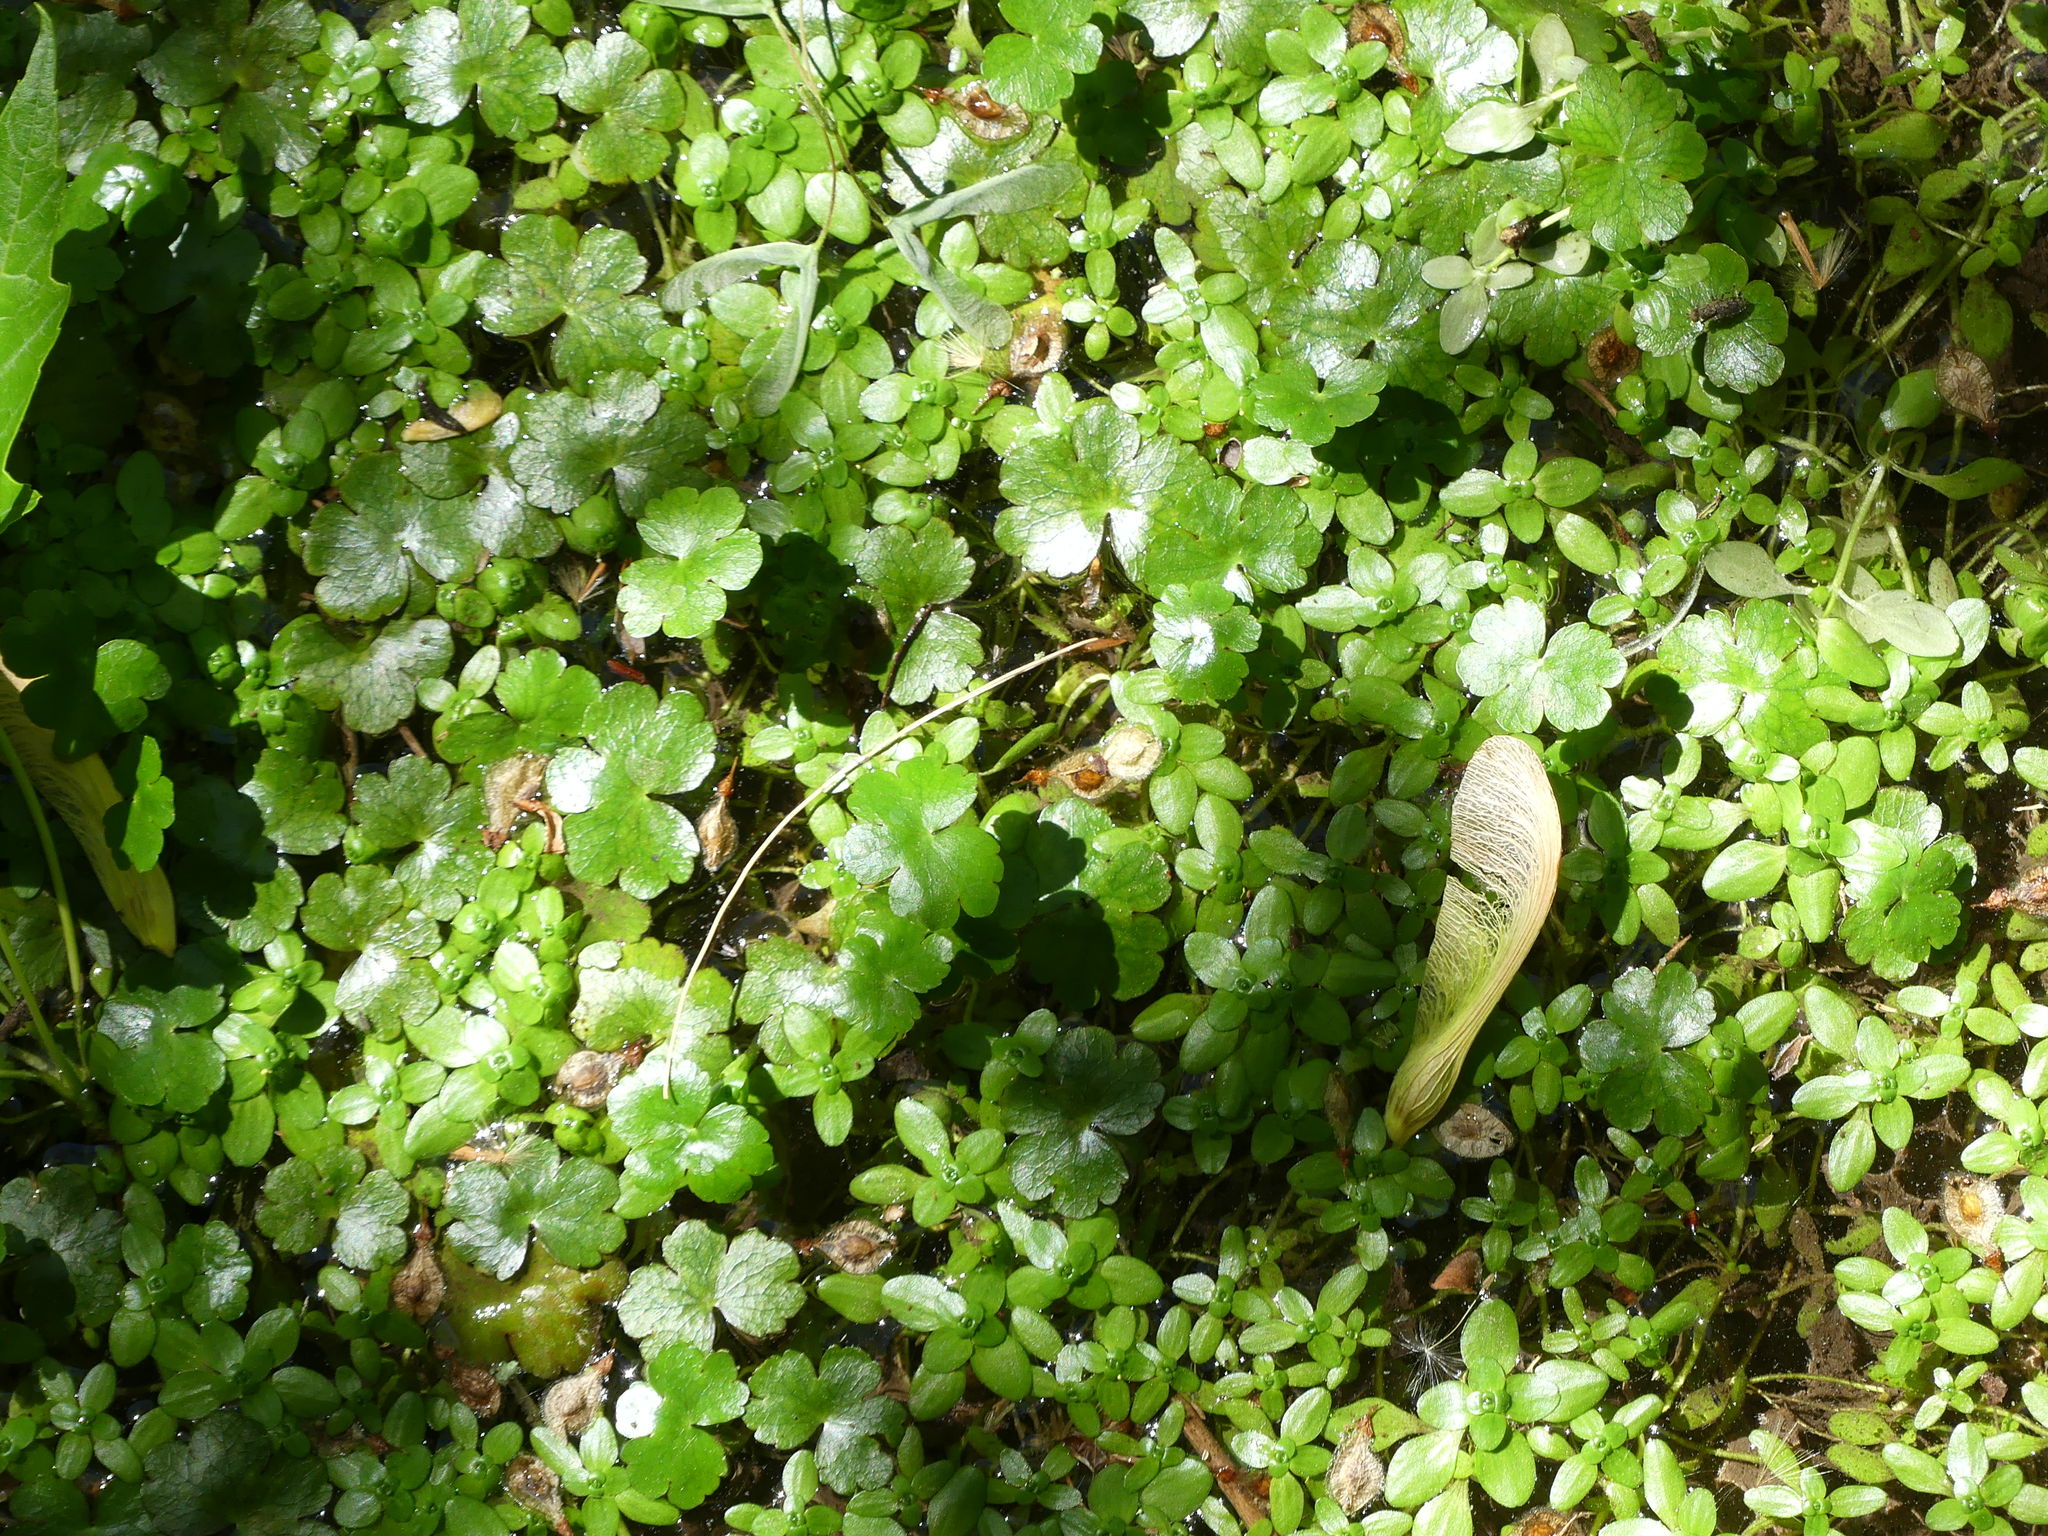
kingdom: Plantae
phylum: Tracheophyta
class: Magnoliopsida
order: Apiales
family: Araliaceae
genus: Hydrocotyle
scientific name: Hydrocotyle ranunculoides
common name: Floating pennywort
